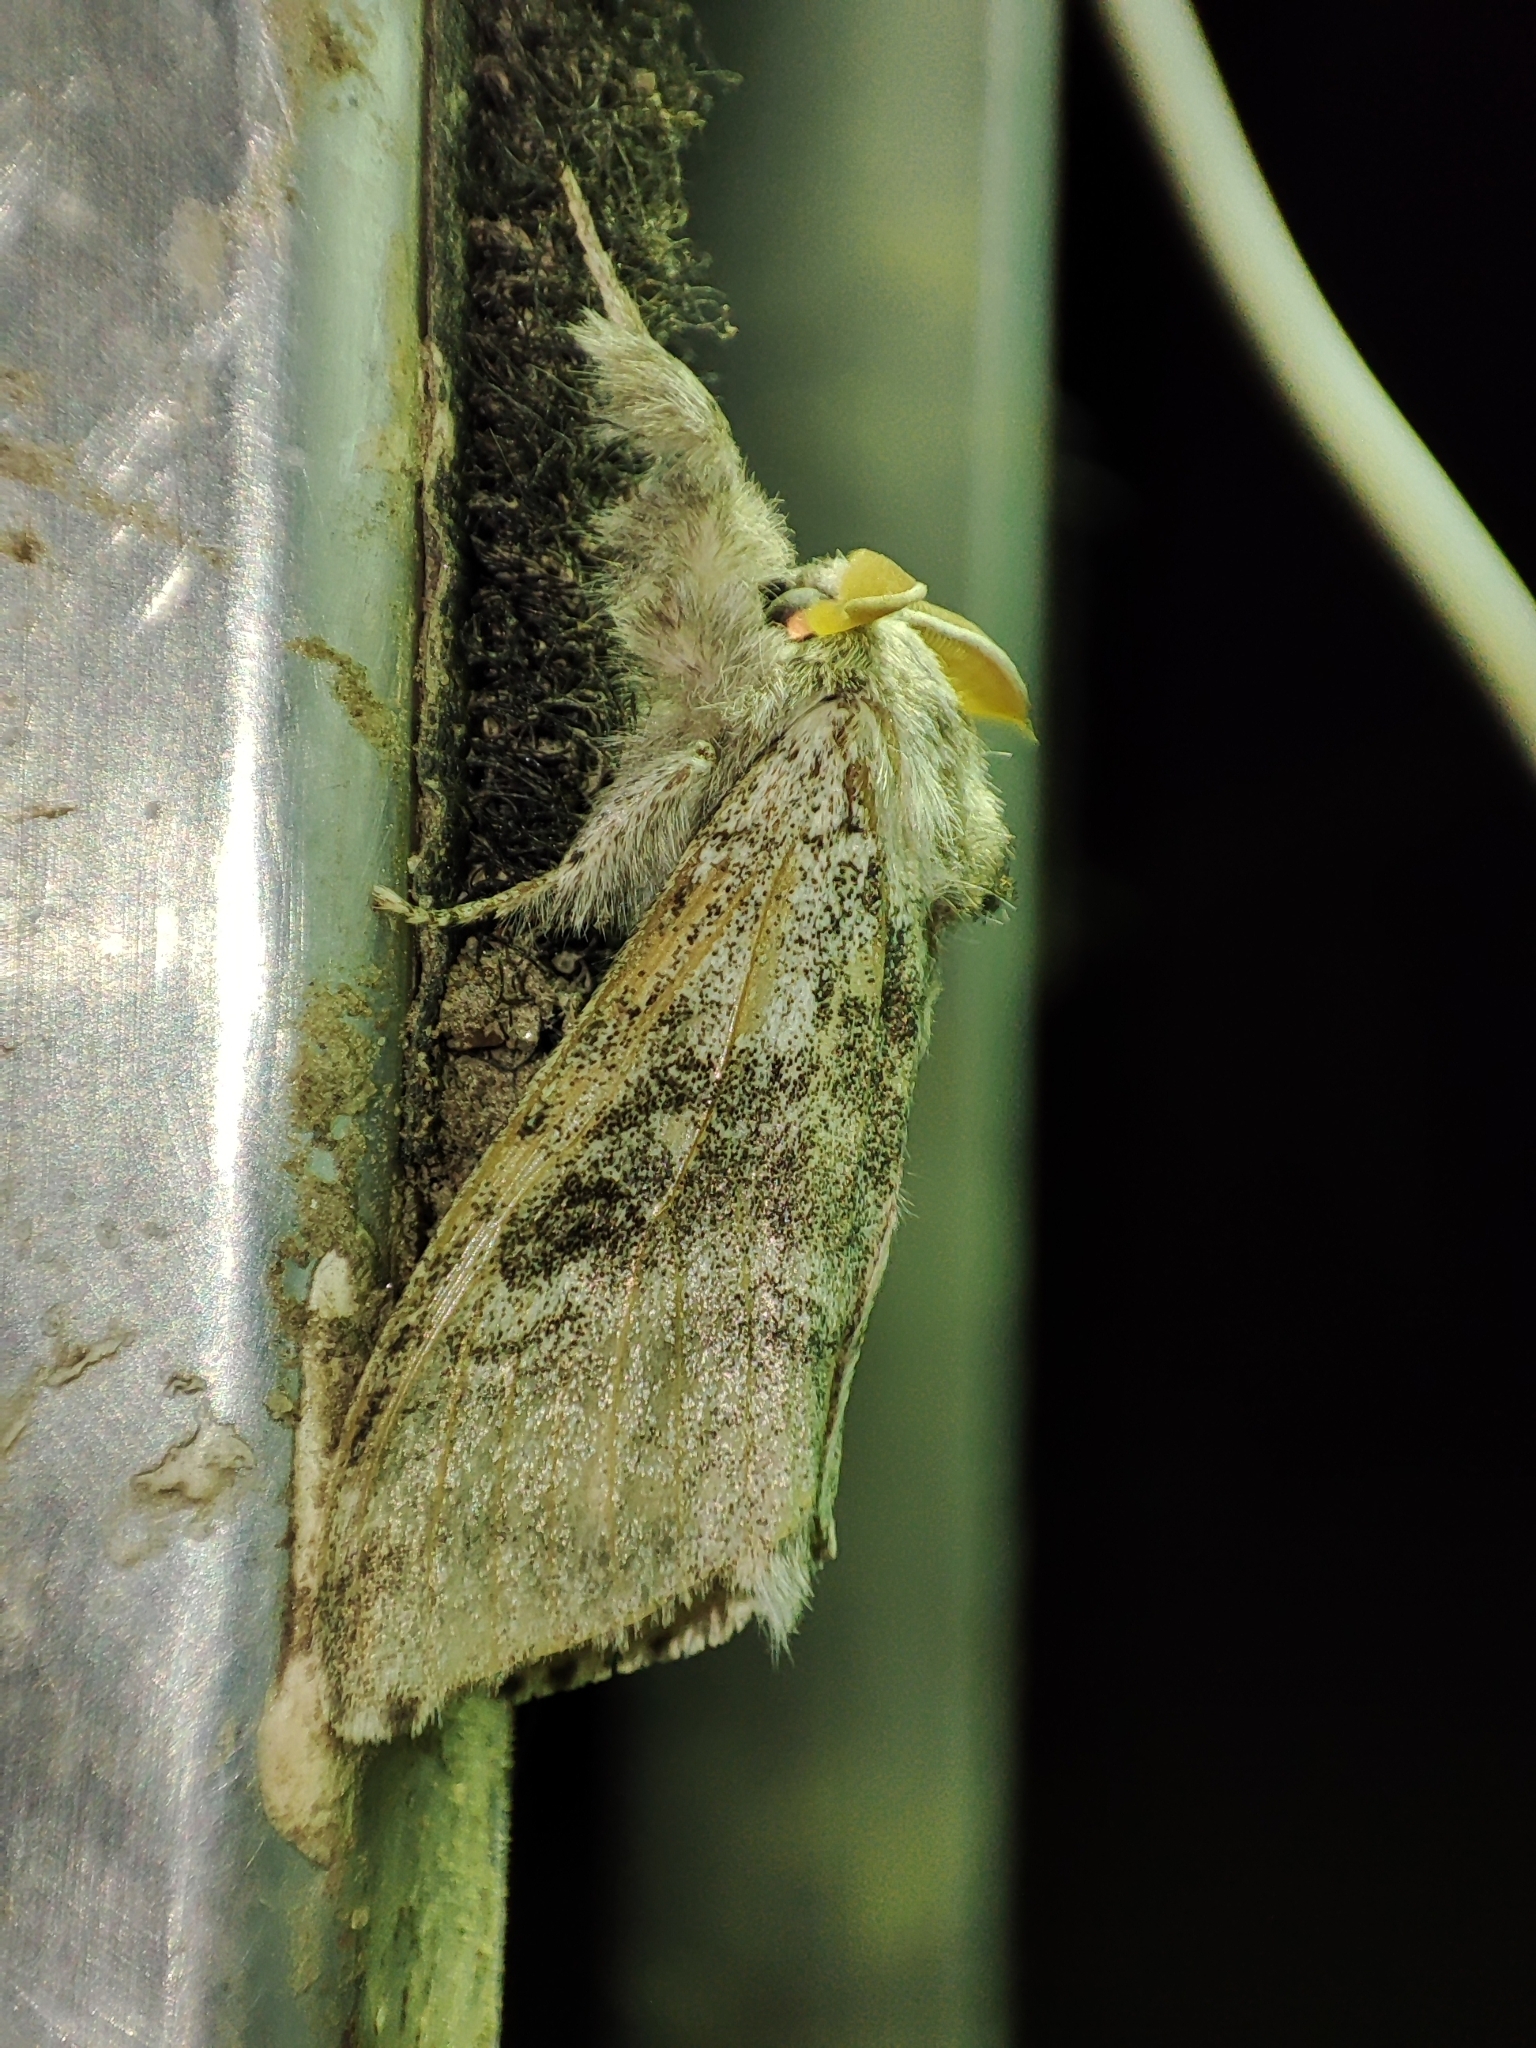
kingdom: Animalia
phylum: Arthropoda
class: Insecta
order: Lepidoptera
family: Erebidae
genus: Calliteara
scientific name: Calliteara pudibunda
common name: Pale tussock
